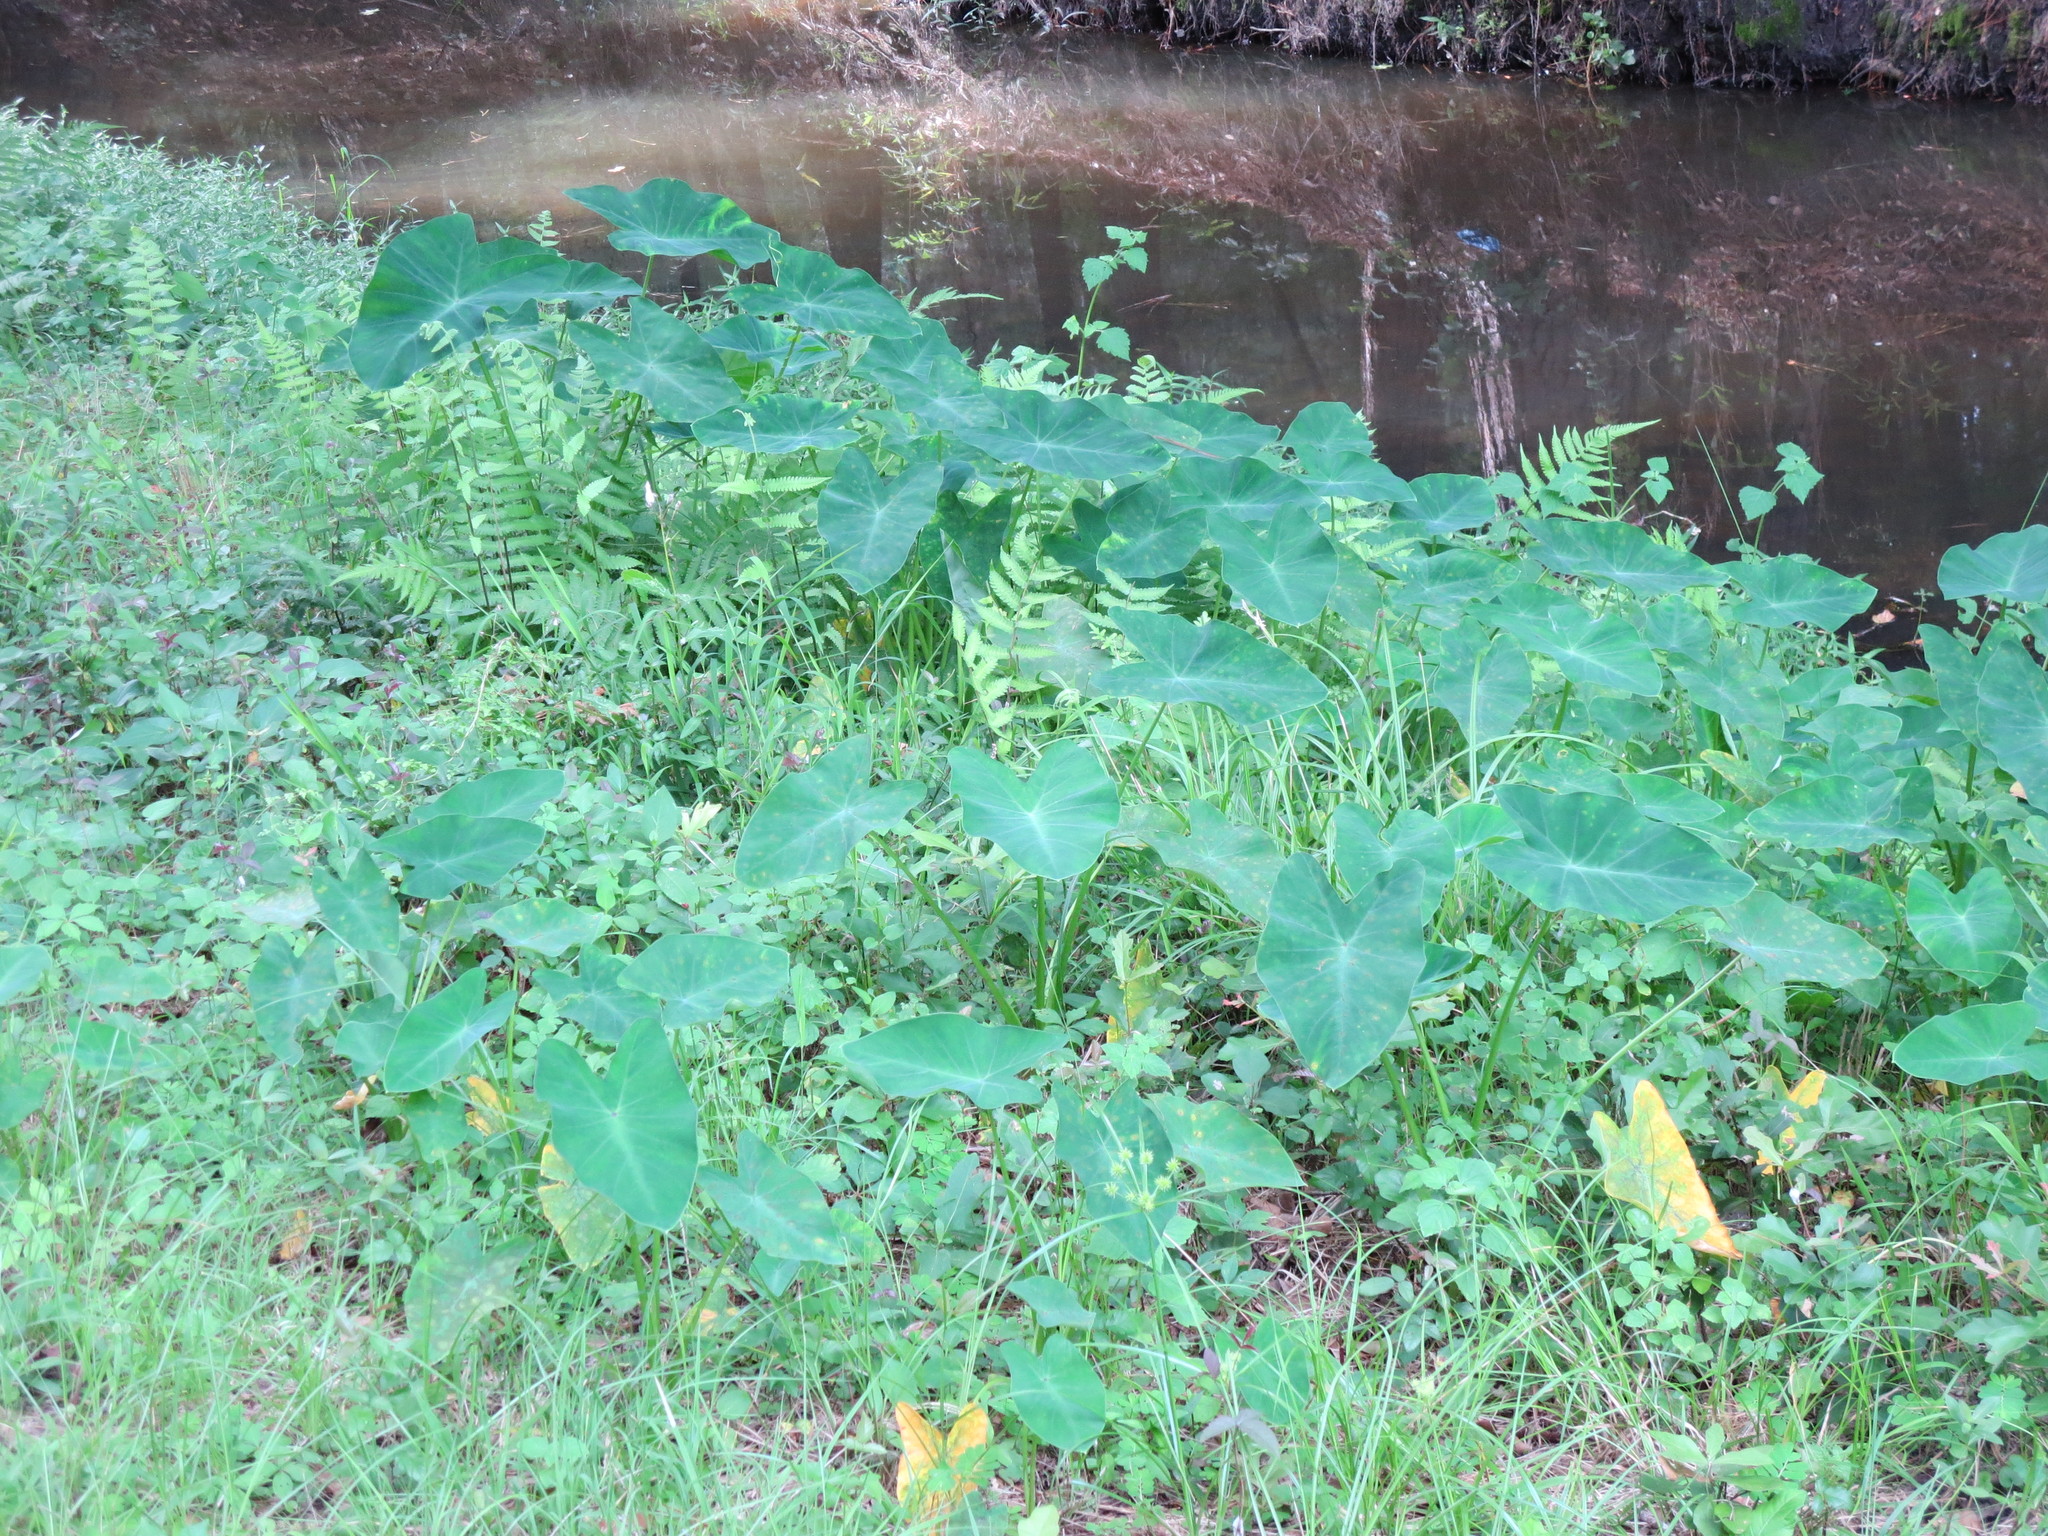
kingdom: Plantae
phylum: Tracheophyta
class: Liliopsida
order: Alismatales
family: Araceae
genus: Colocasia
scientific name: Colocasia esculenta
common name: Taro
